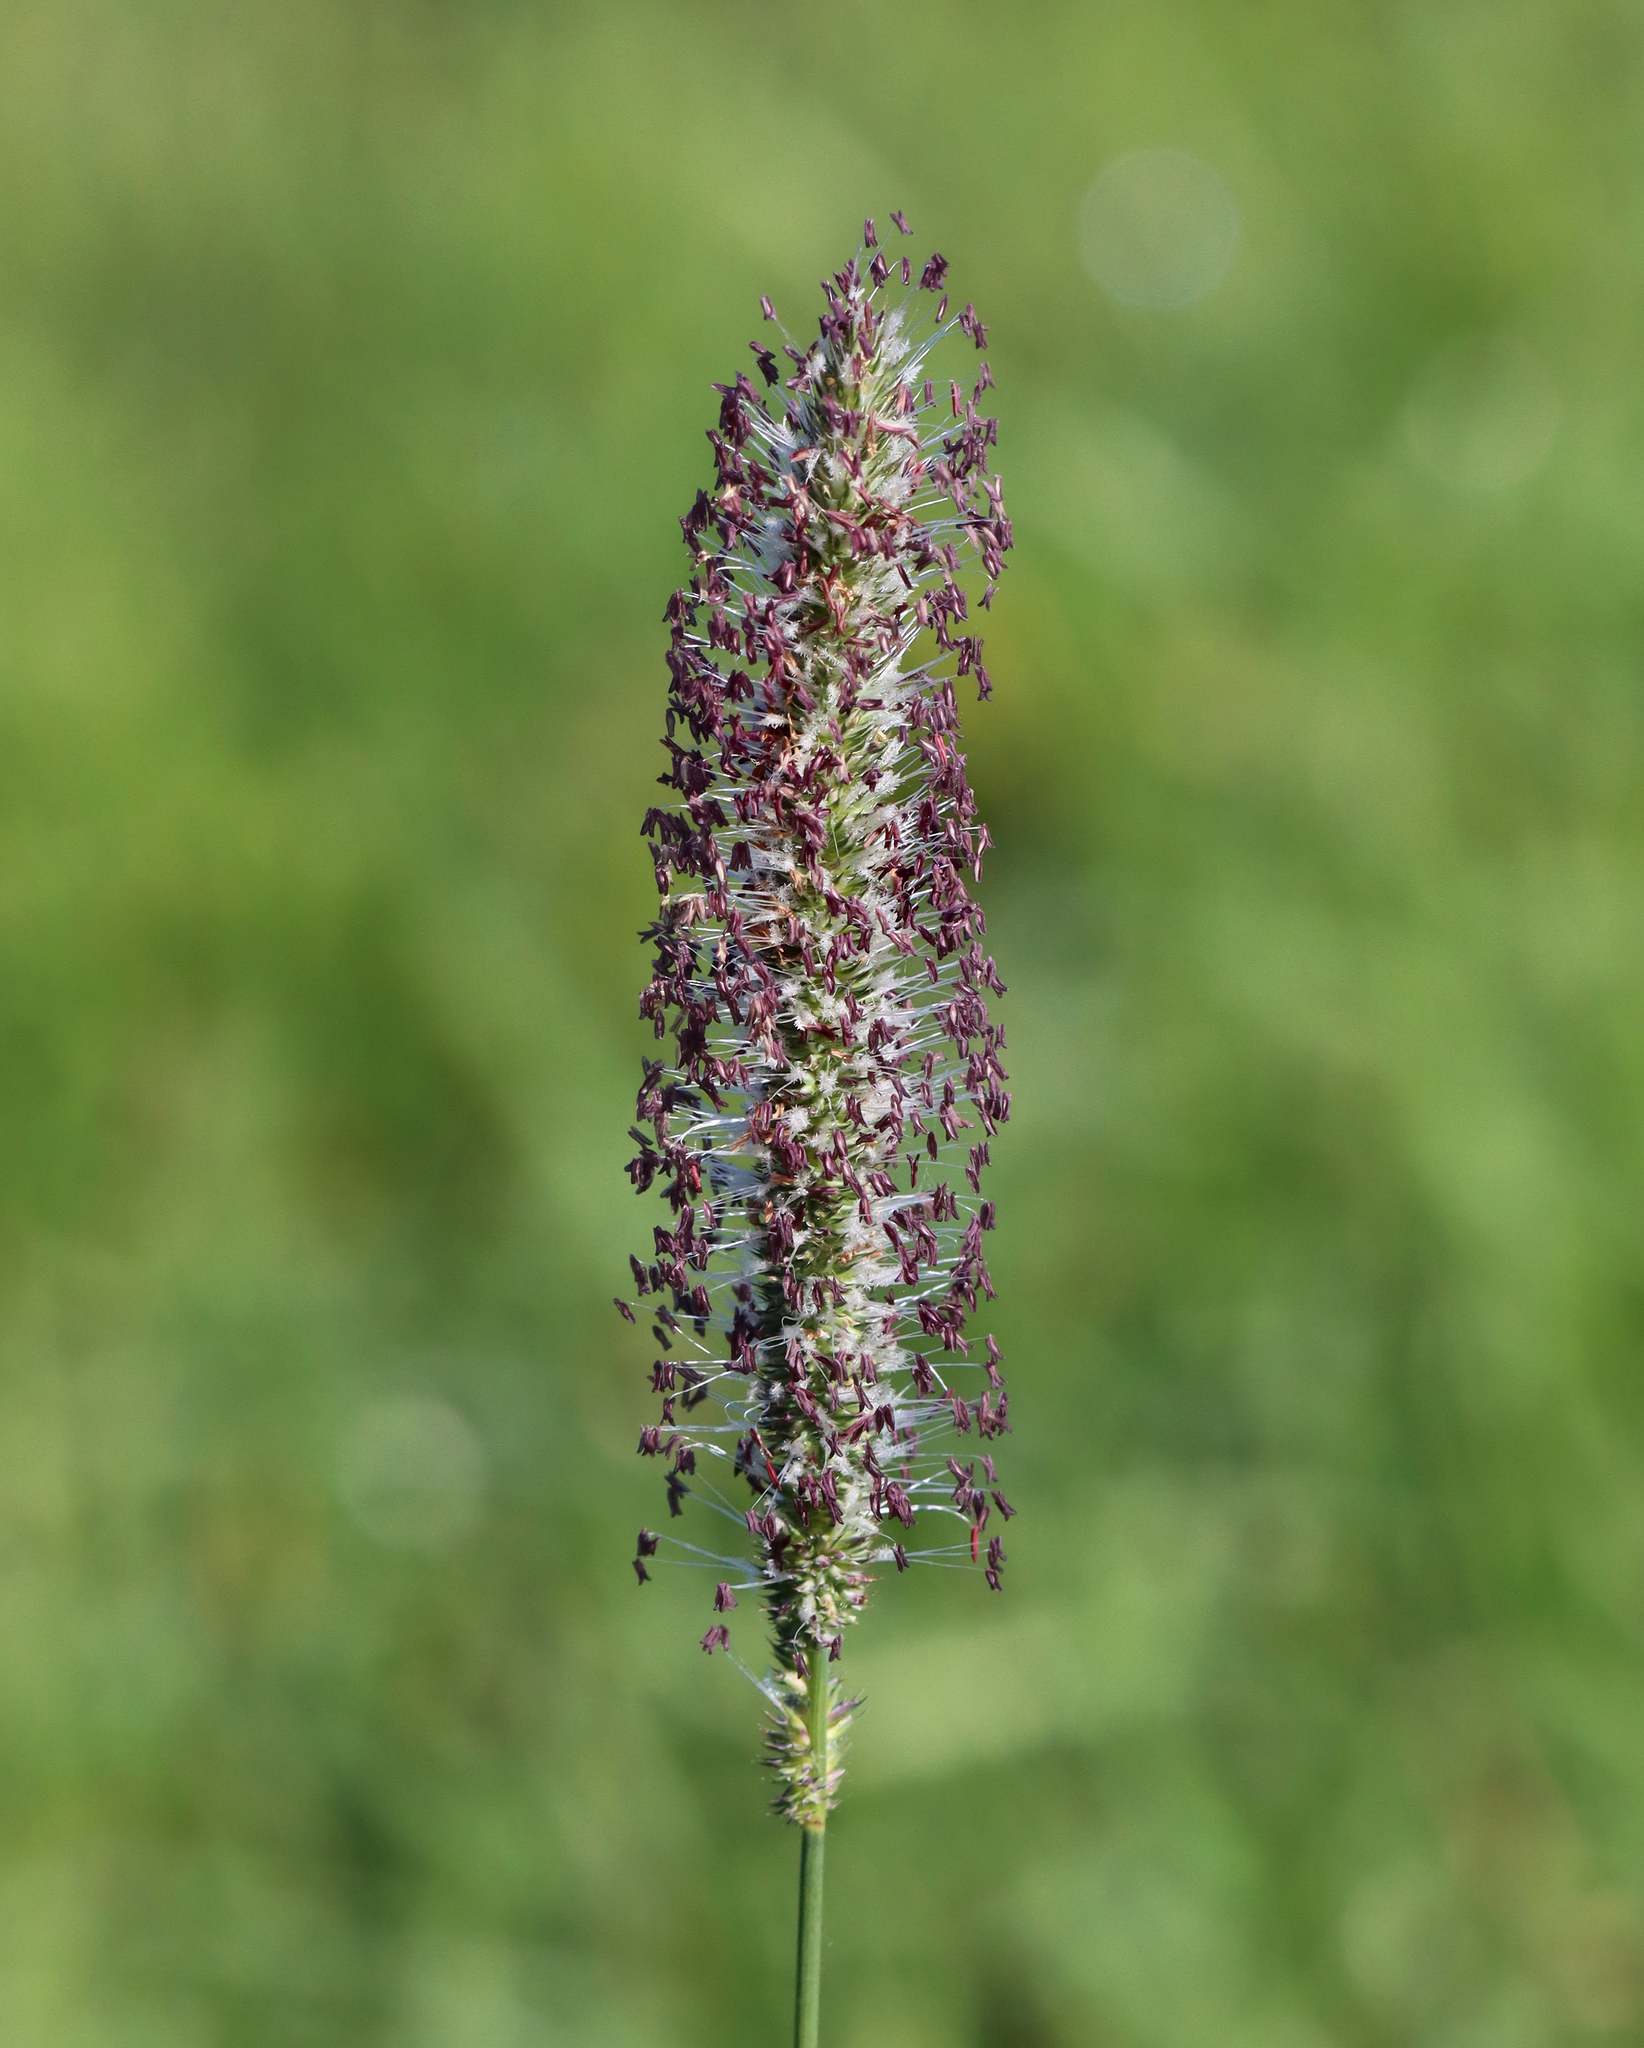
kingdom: Plantae
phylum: Tracheophyta
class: Liliopsida
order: Poales
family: Poaceae
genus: Phleum
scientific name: Phleum pratense
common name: Timothy grass
